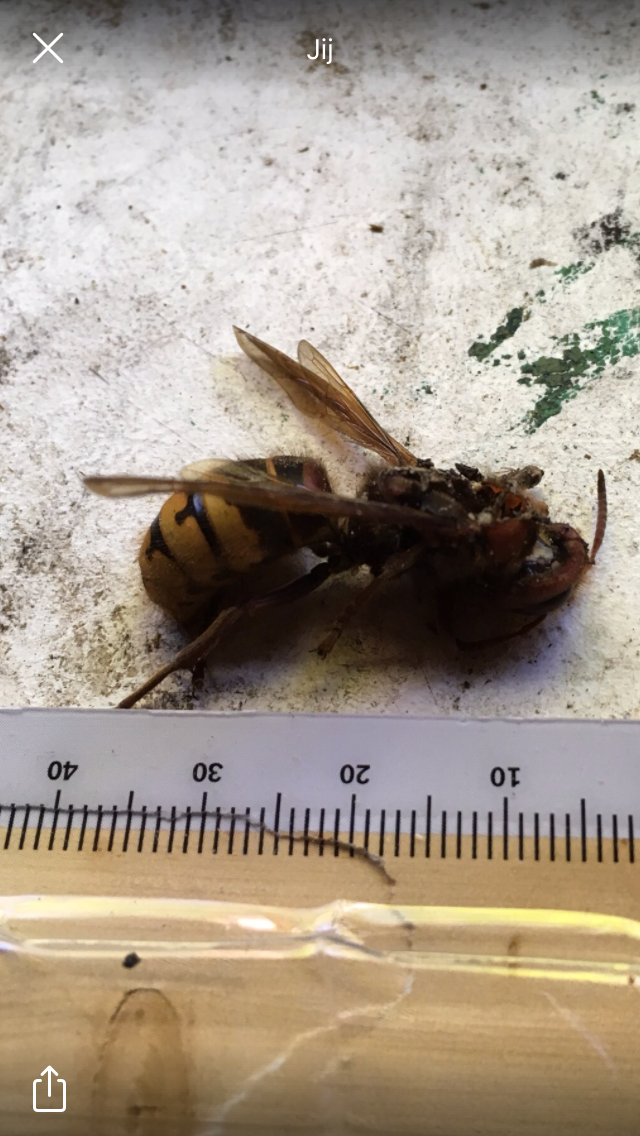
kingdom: Animalia
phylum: Arthropoda
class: Insecta
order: Hymenoptera
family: Vespidae
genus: Vespa
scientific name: Vespa crabro
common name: Hornet
